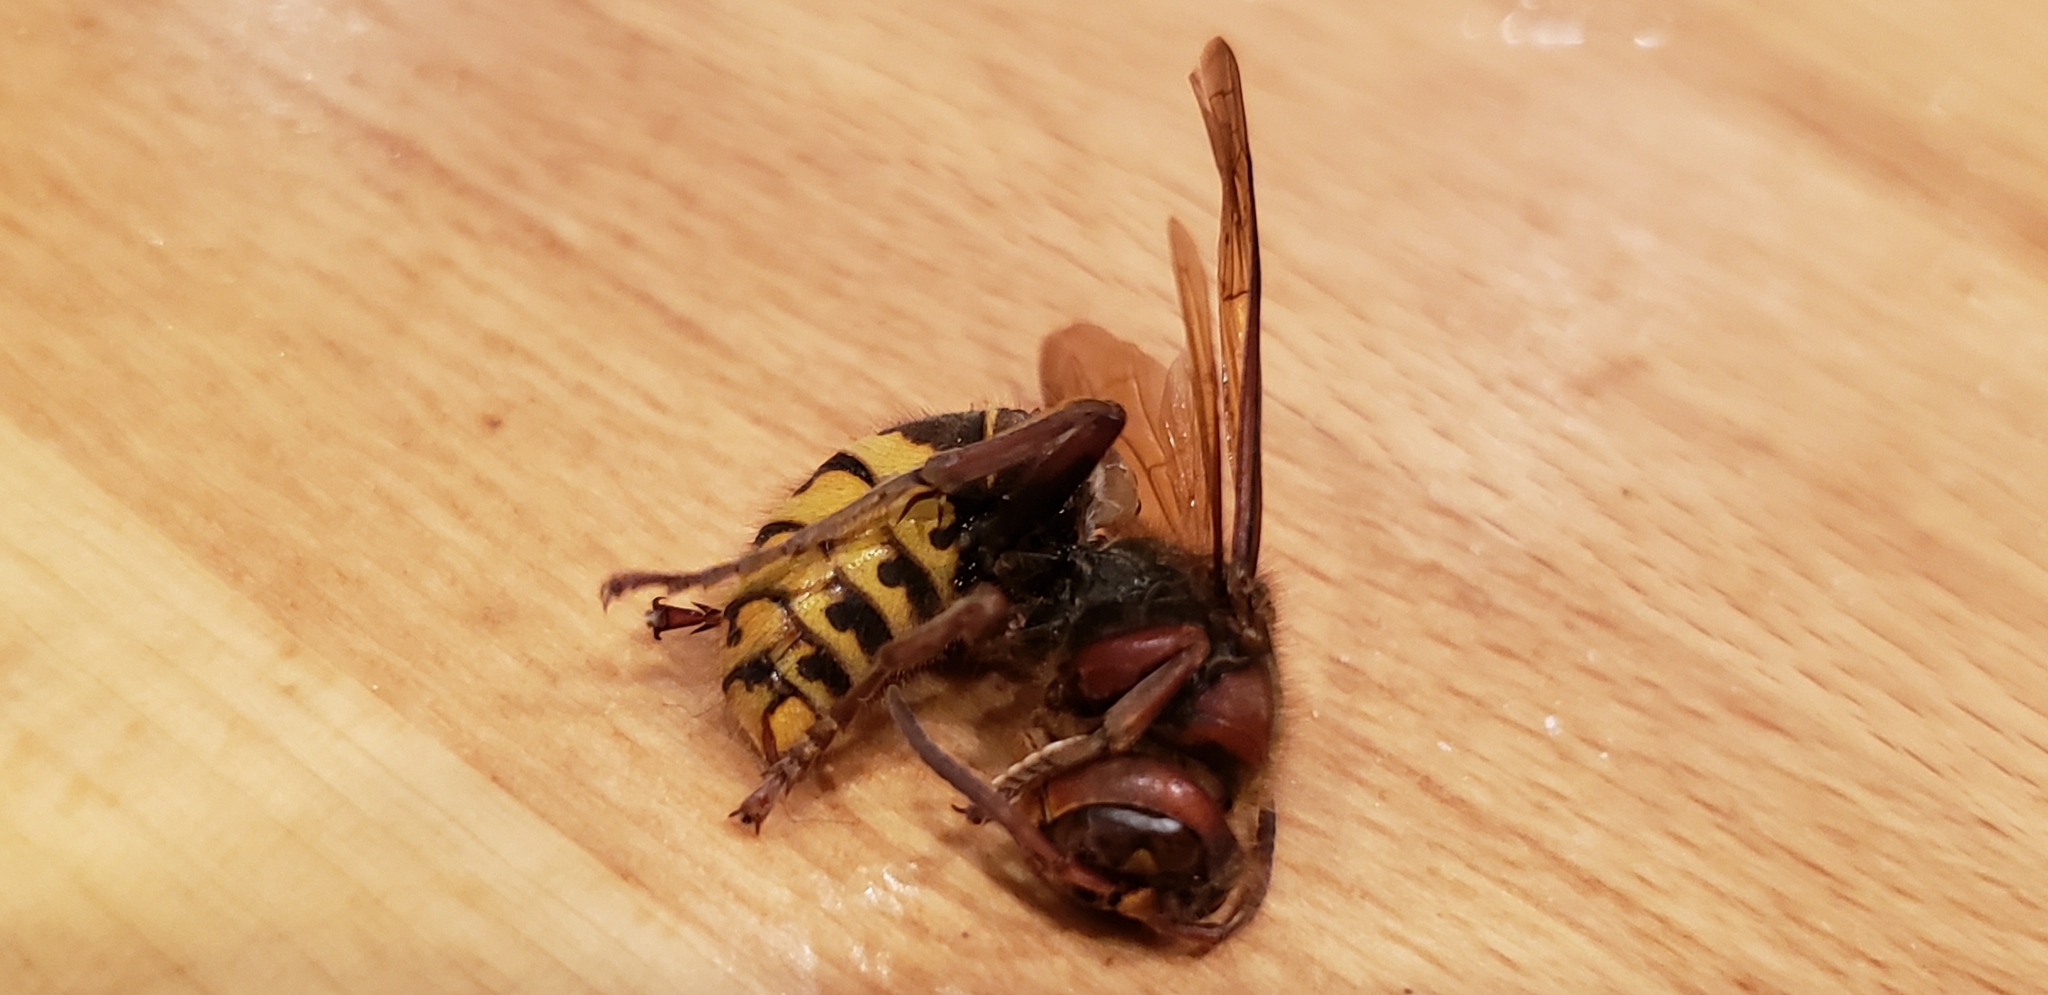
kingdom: Animalia
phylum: Arthropoda
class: Insecta
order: Hymenoptera
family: Vespidae
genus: Vespa
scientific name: Vespa crabro
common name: Hornet
